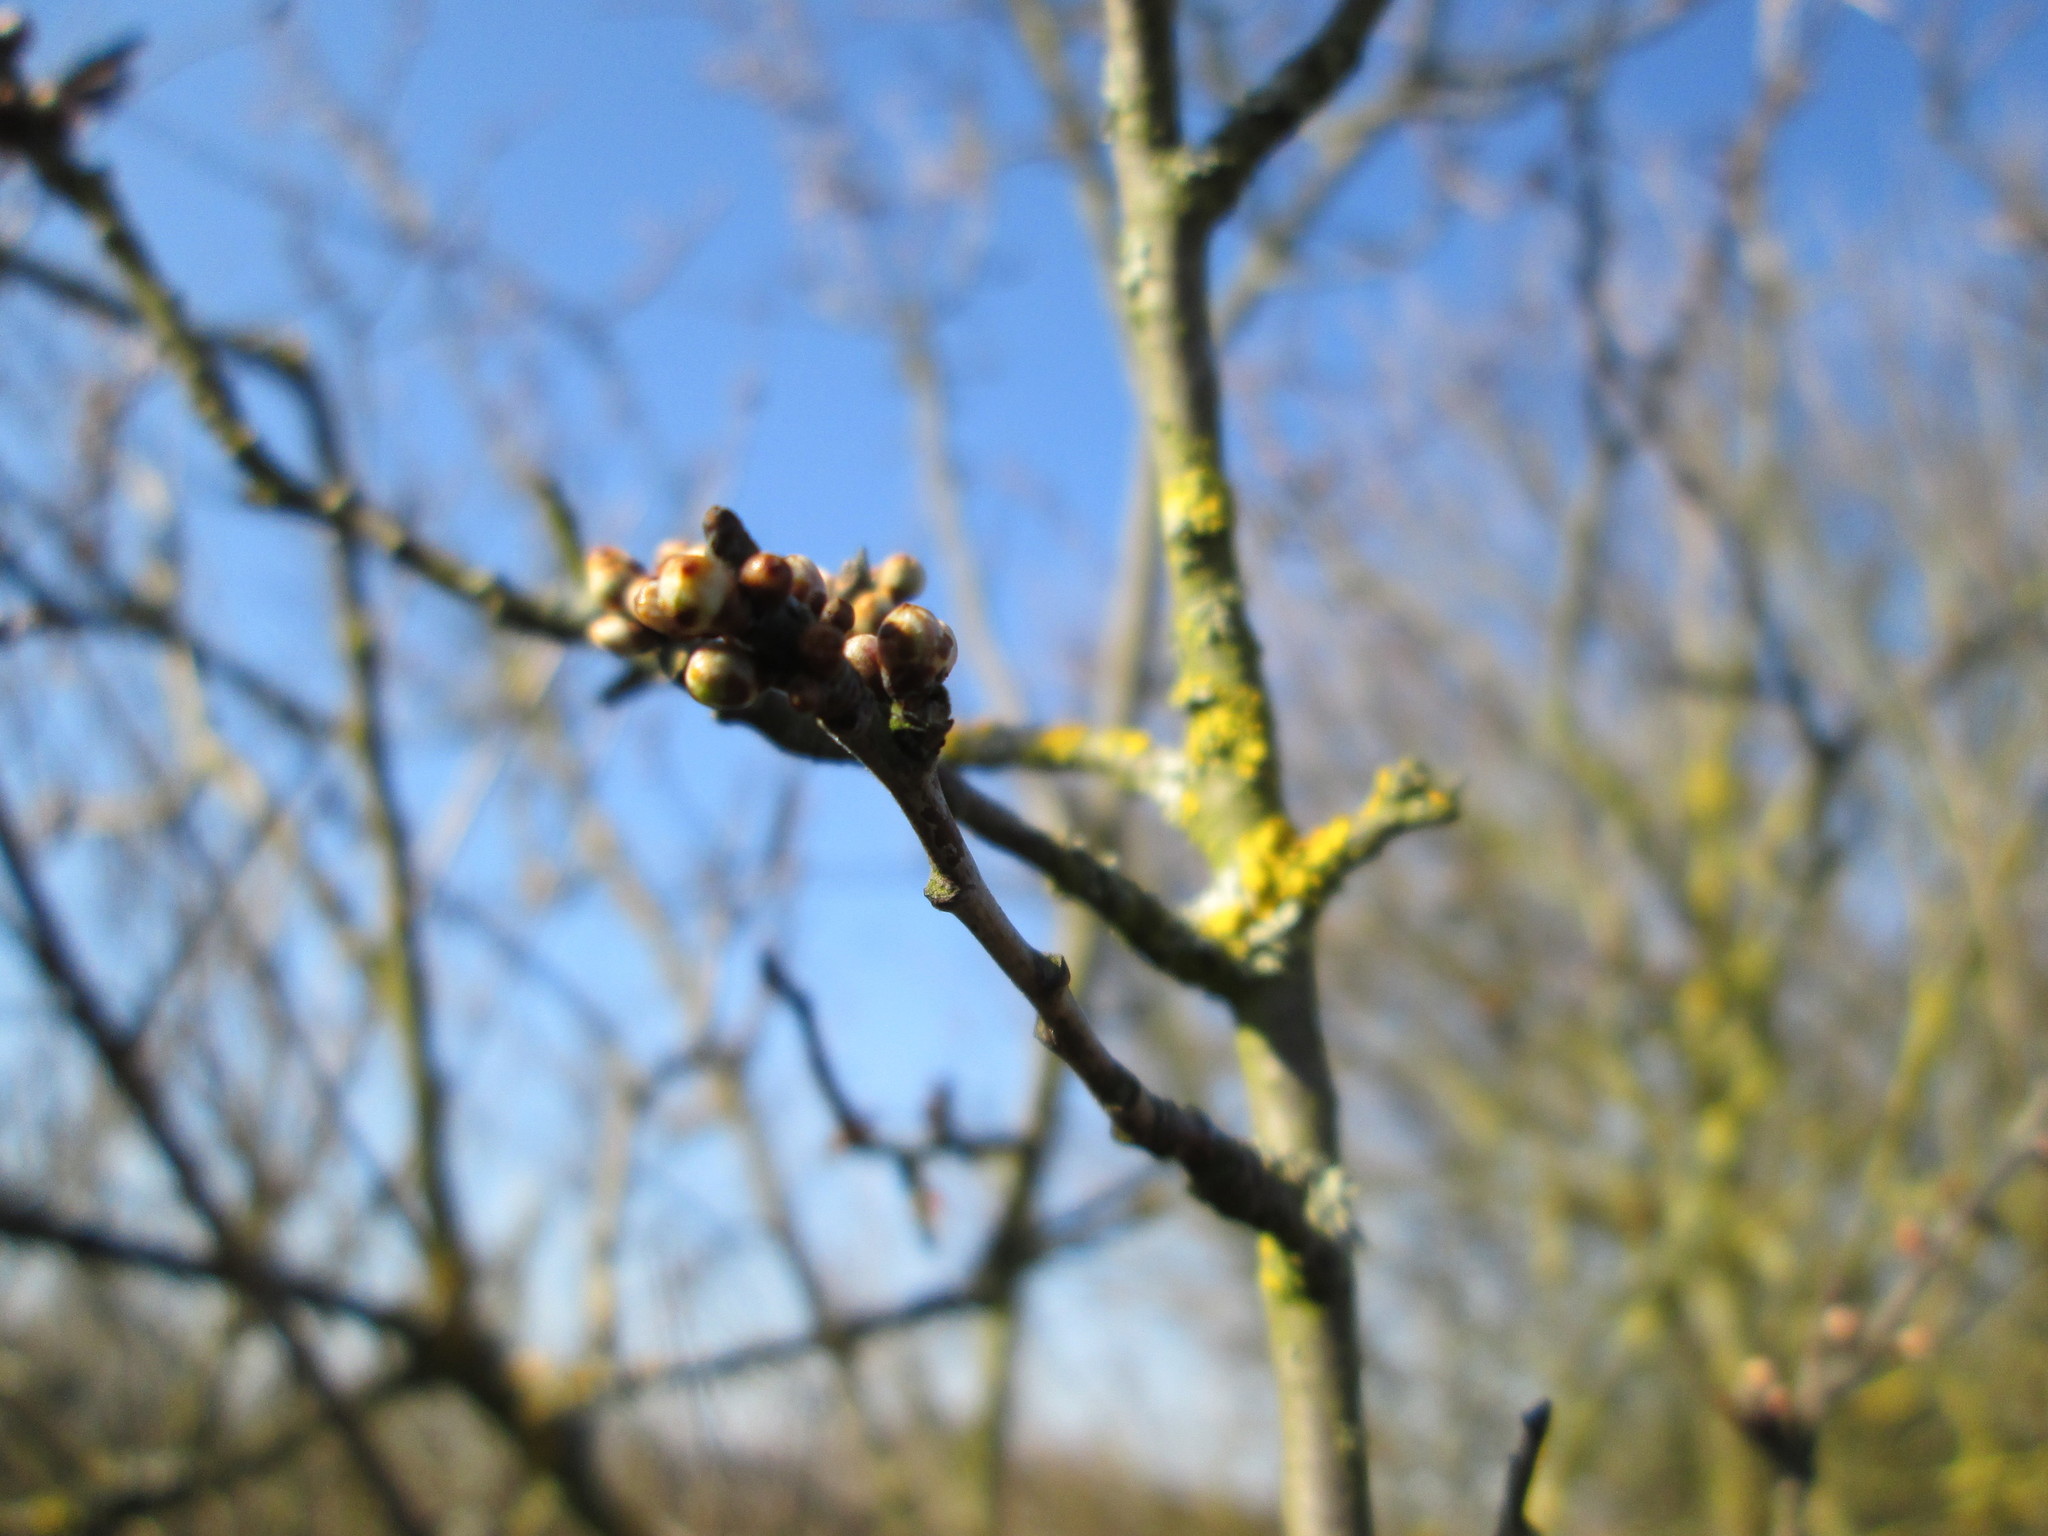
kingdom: Plantae
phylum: Tracheophyta
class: Magnoliopsida
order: Rosales
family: Rosaceae
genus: Prunus
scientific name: Prunus spinosa
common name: Blackthorn
